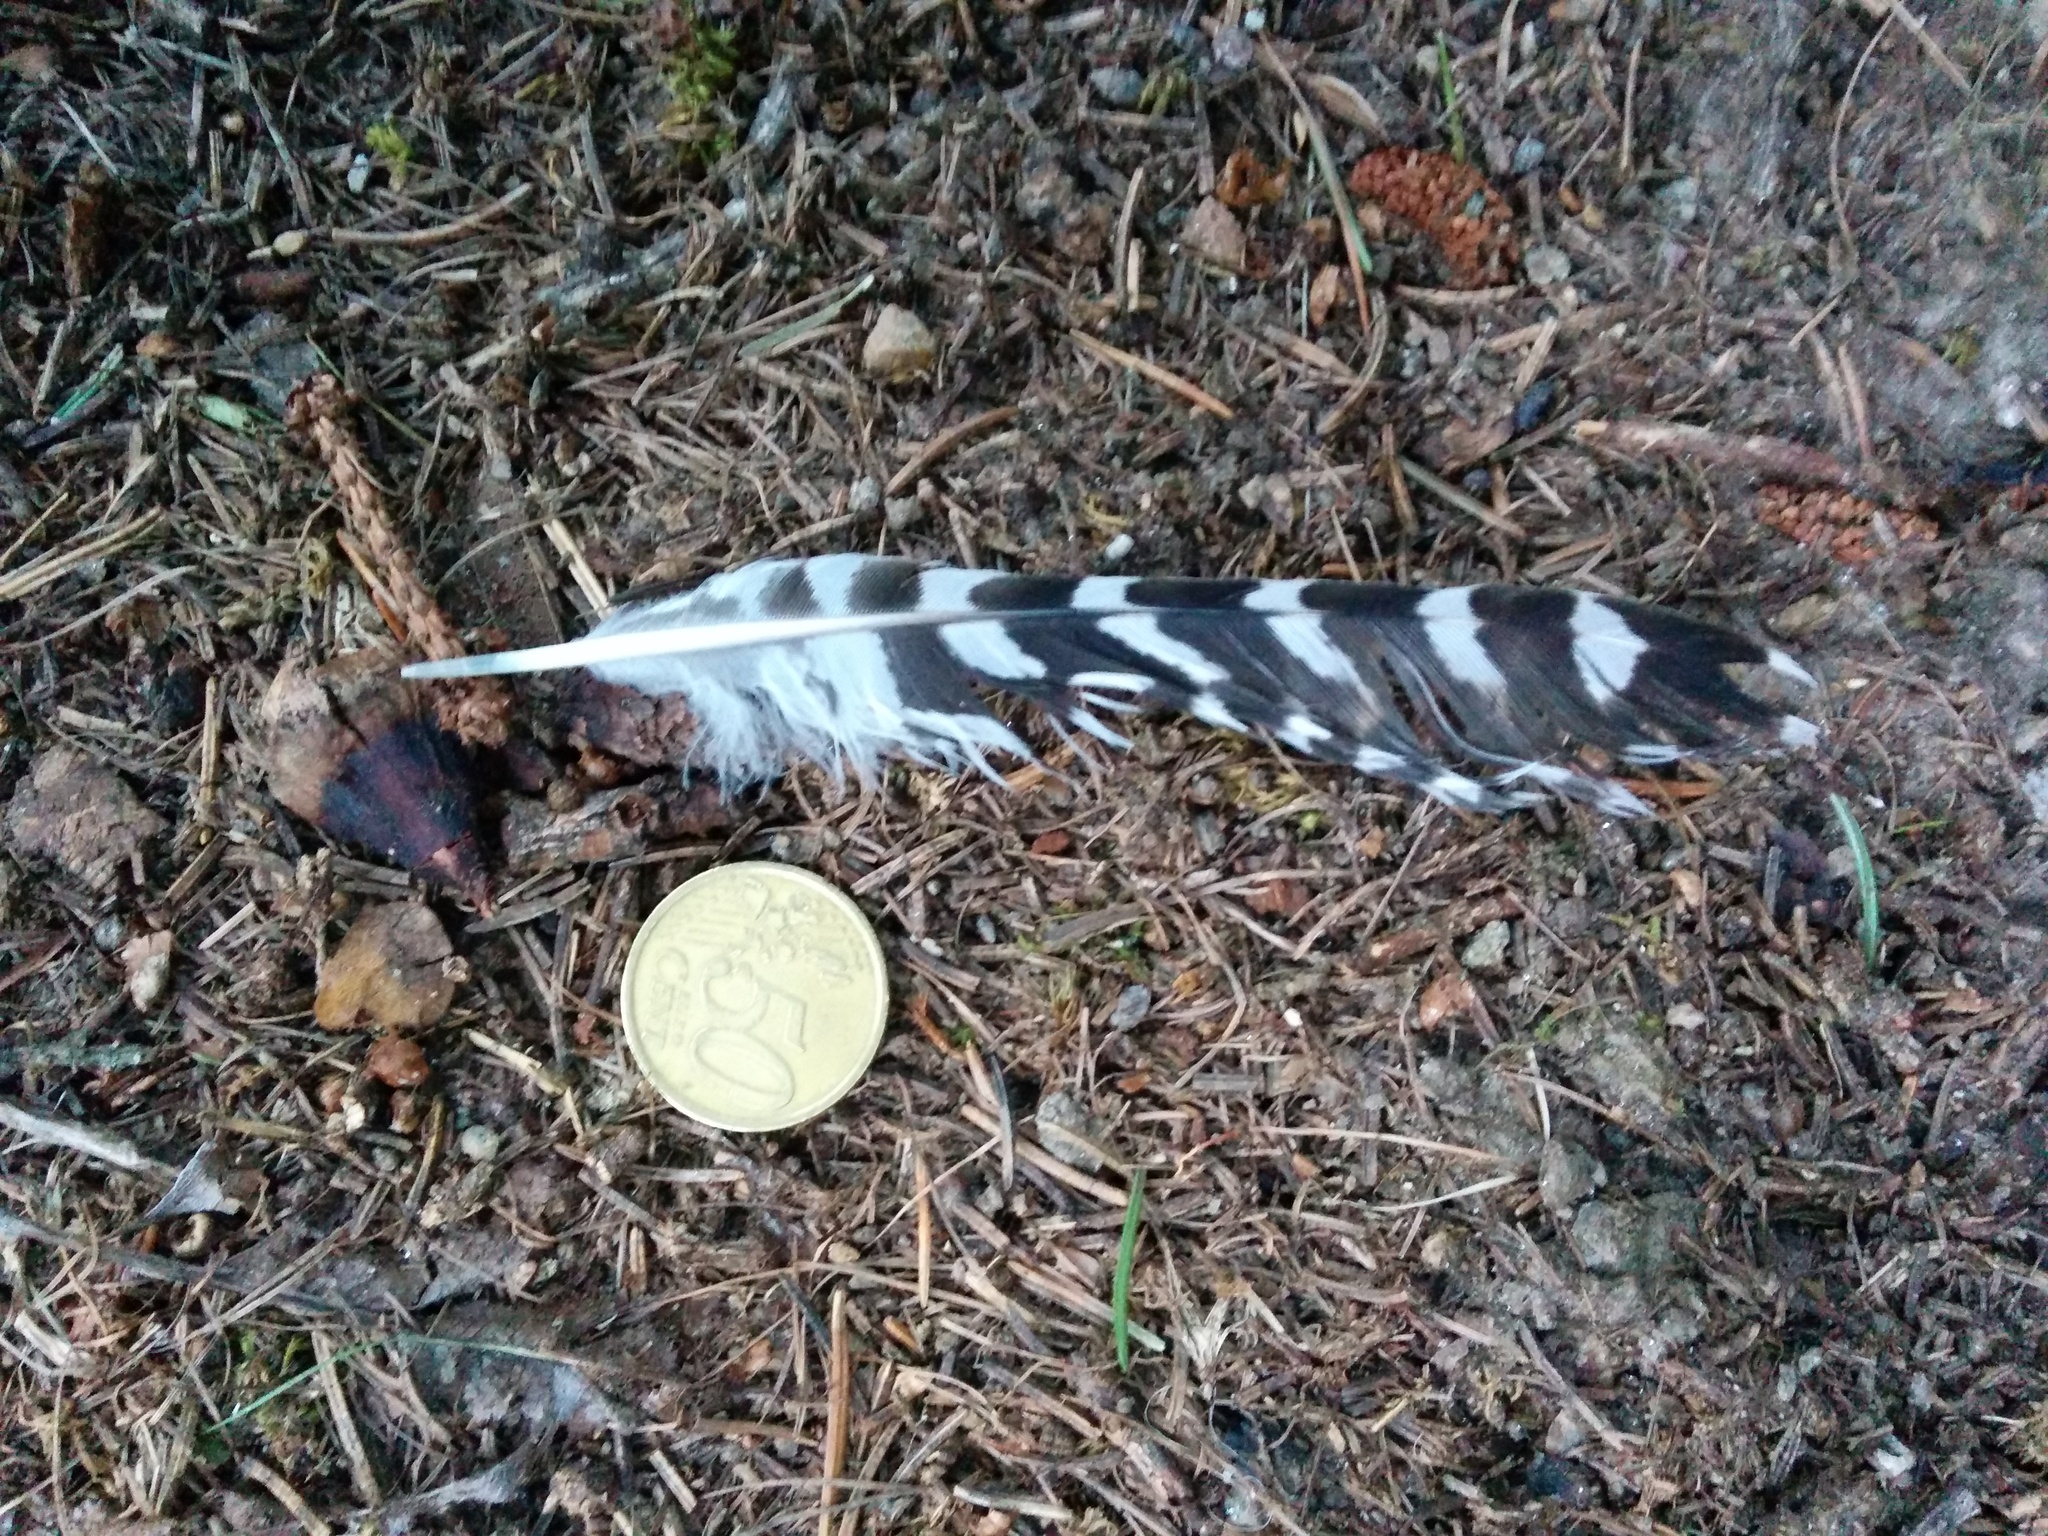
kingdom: Animalia
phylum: Chordata
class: Aves
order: Cuculiformes
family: Cuculidae
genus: Cuculus
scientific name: Cuculus canorus
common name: Common cuckoo
